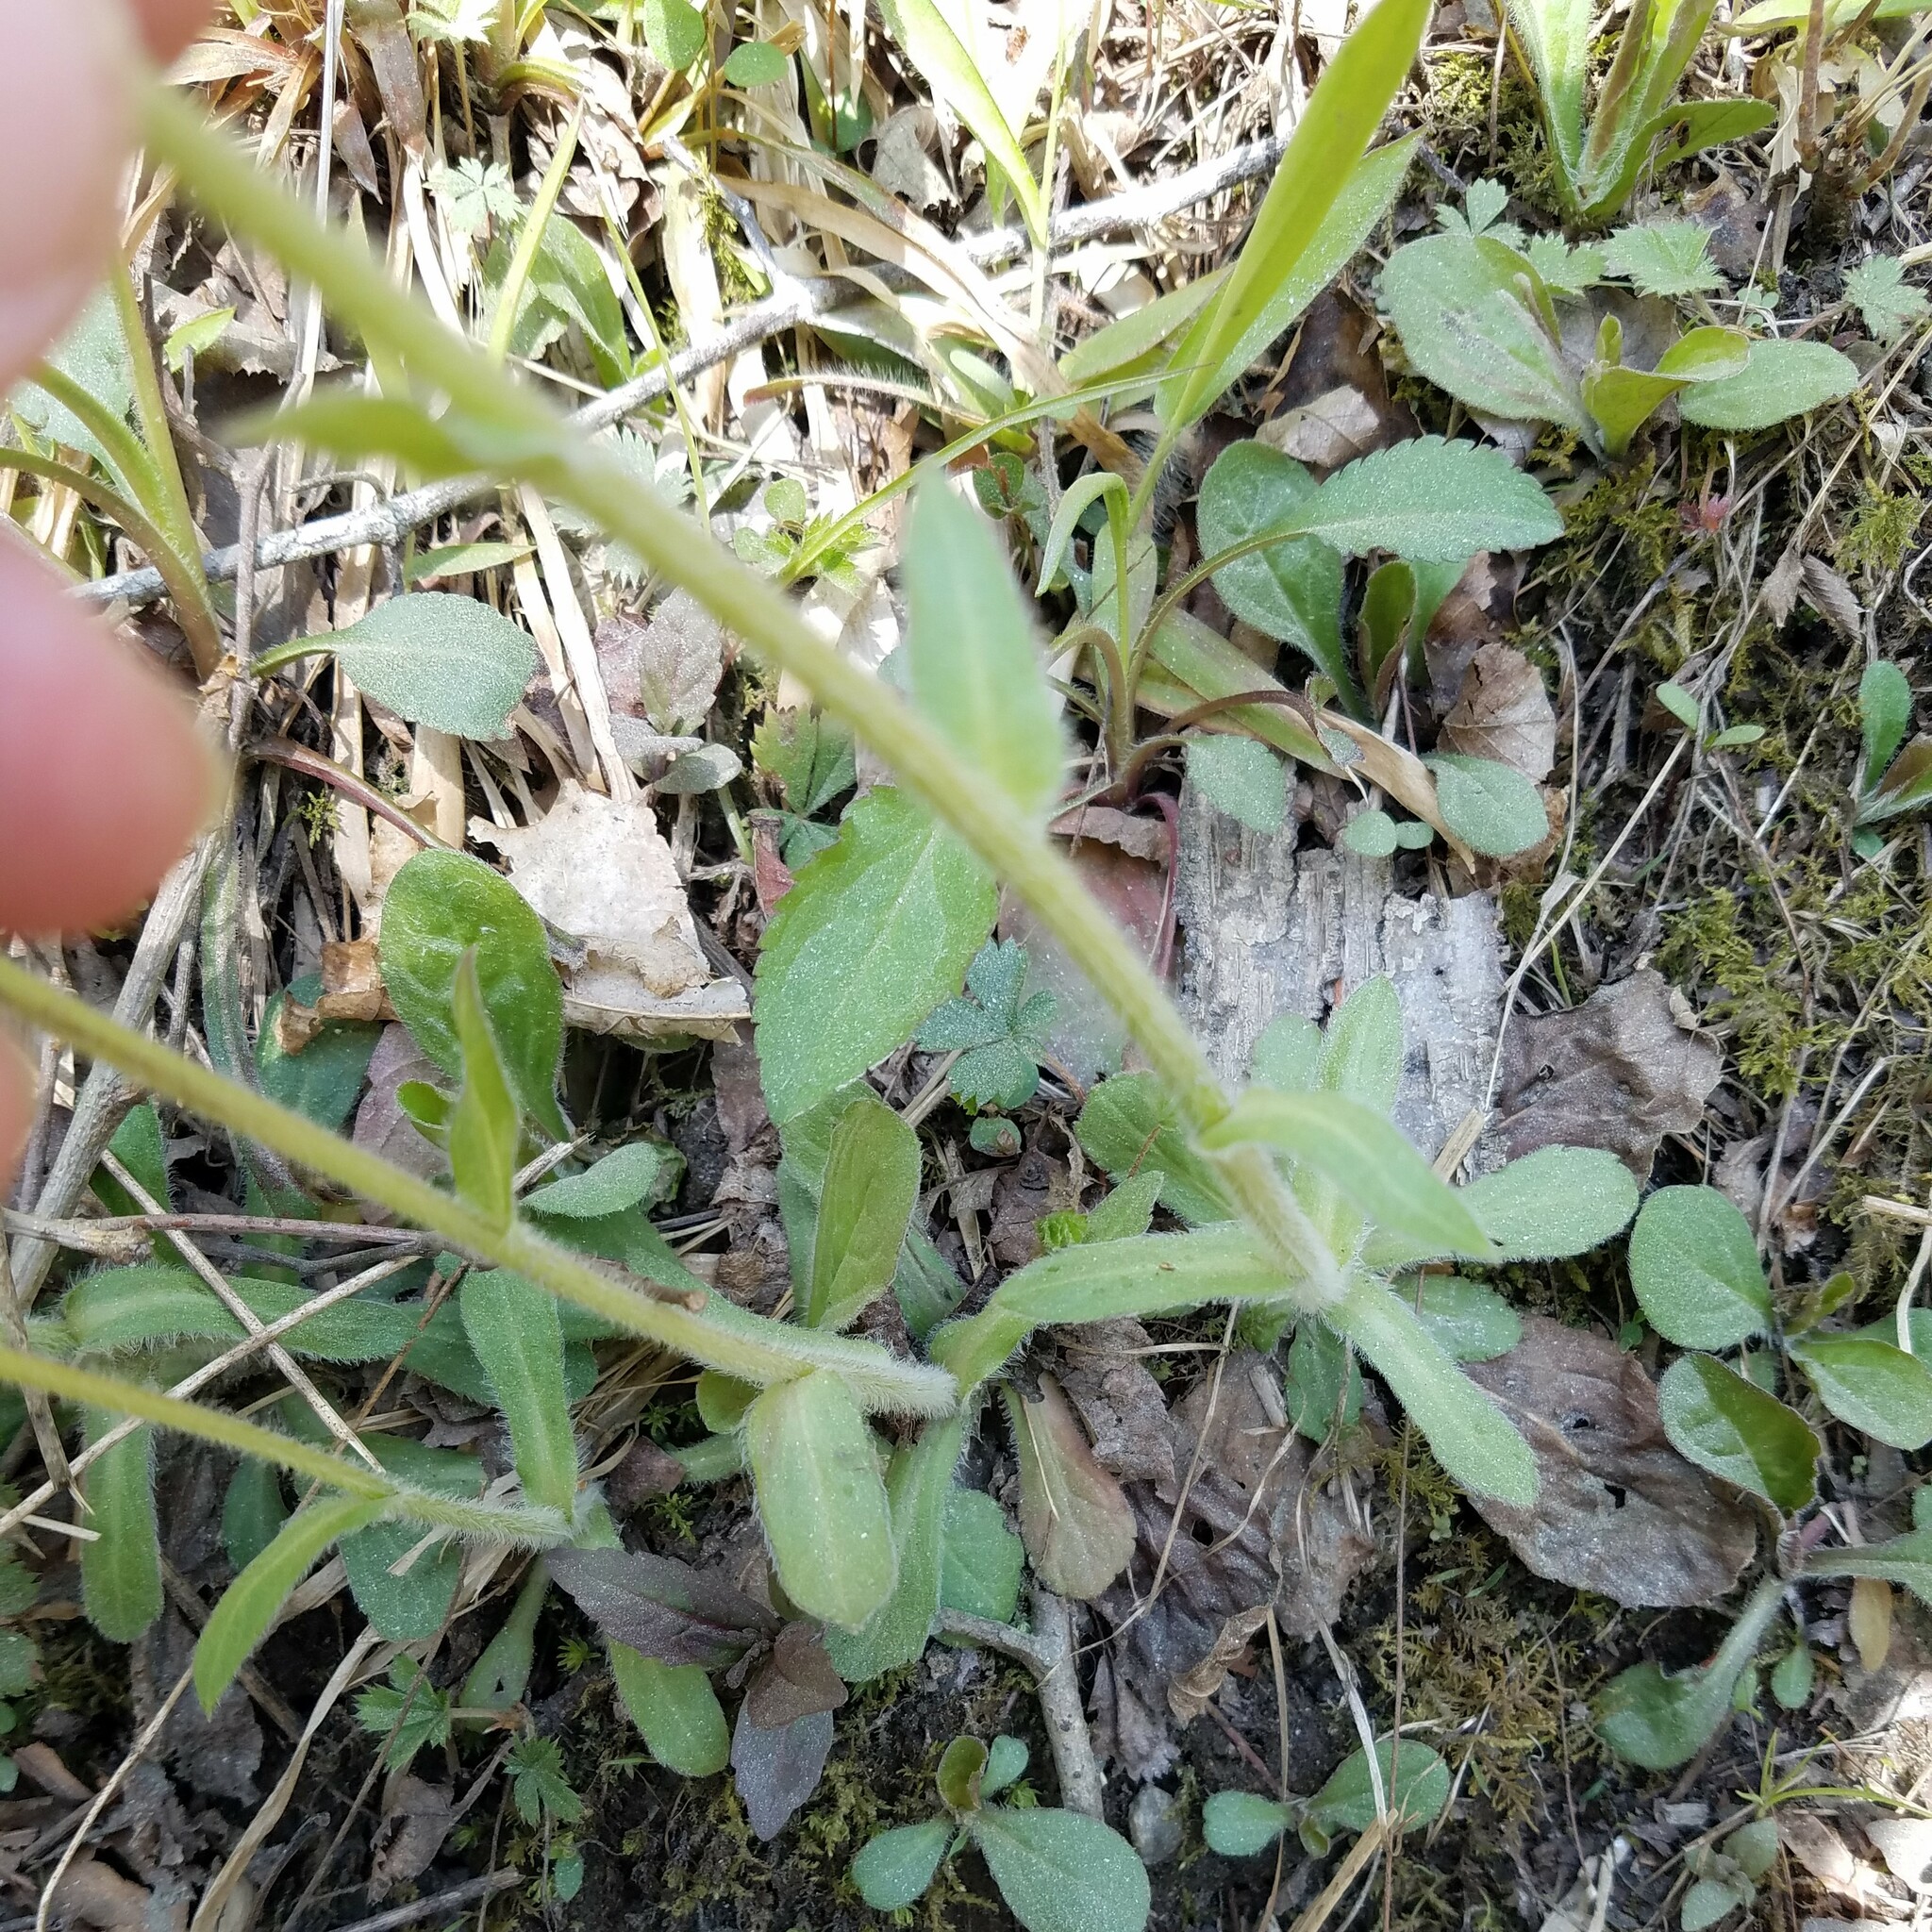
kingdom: Plantae
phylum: Tracheophyta
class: Magnoliopsida
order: Asterales
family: Asteraceae
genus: Erigeron
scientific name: Erigeron pulchellus
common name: Hairy fleabane
